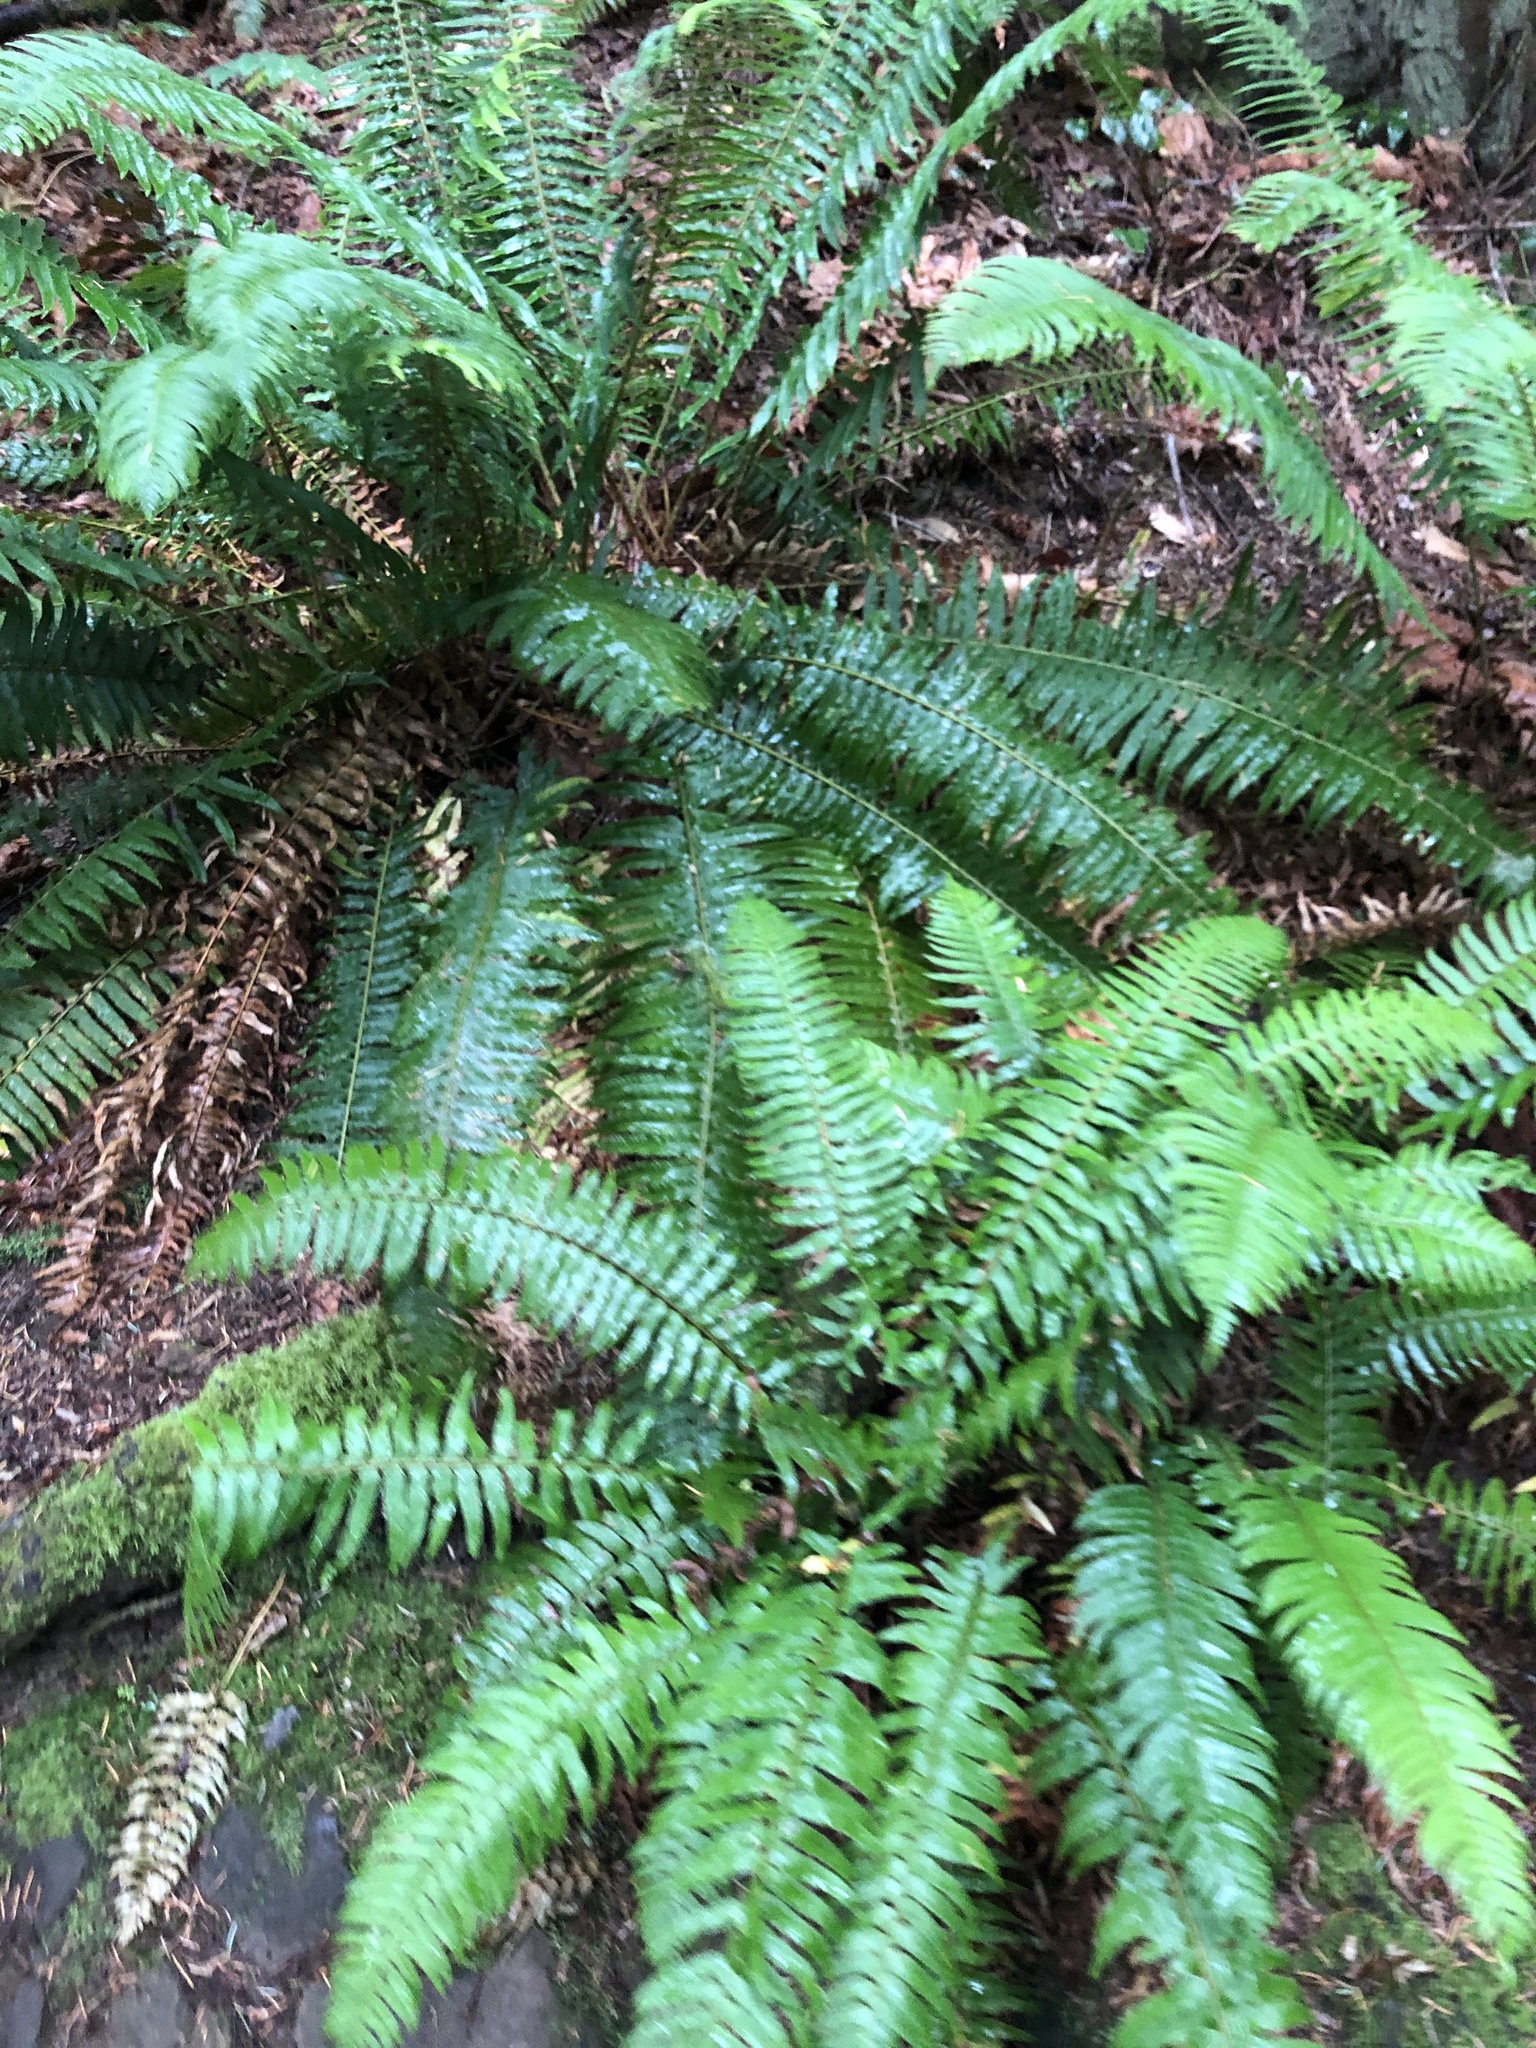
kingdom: Plantae
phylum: Tracheophyta
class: Polypodiopsida
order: Polypodiales
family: Dryopteridaceae
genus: Polystichum
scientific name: Polystichum munitum
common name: Western sword-fern
